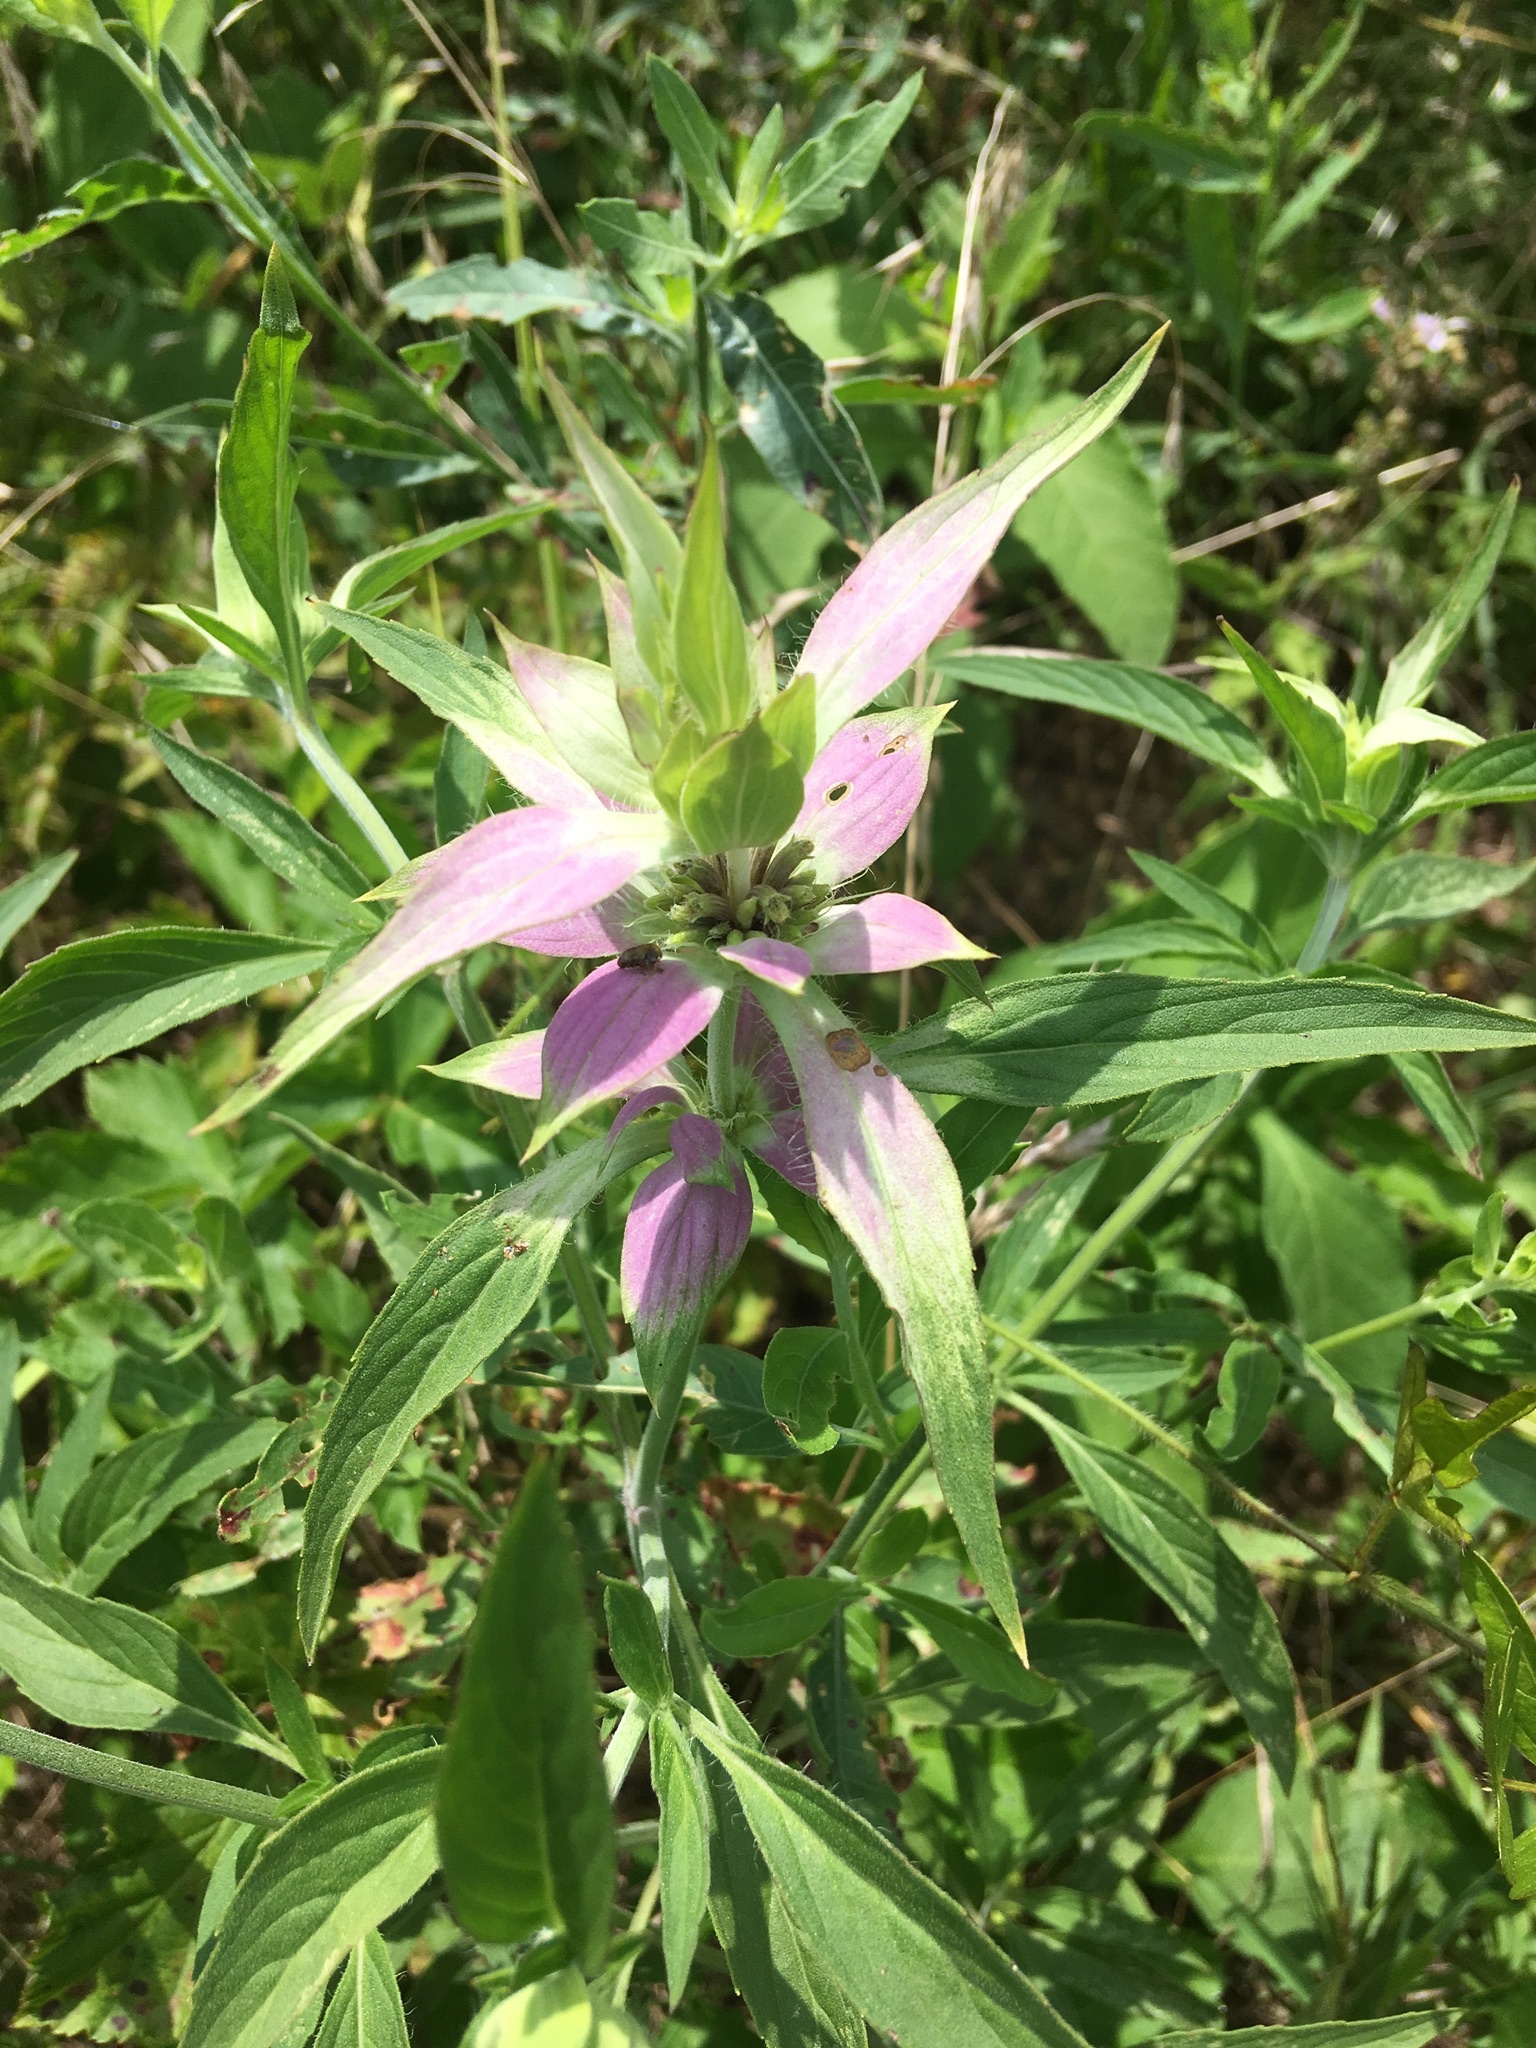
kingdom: Plantae
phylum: Tracheophyta
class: Magnoliopsida
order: Lamiales
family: Lamiaceae
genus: Monarda
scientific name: Monarda punctata
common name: Dotted monarda
